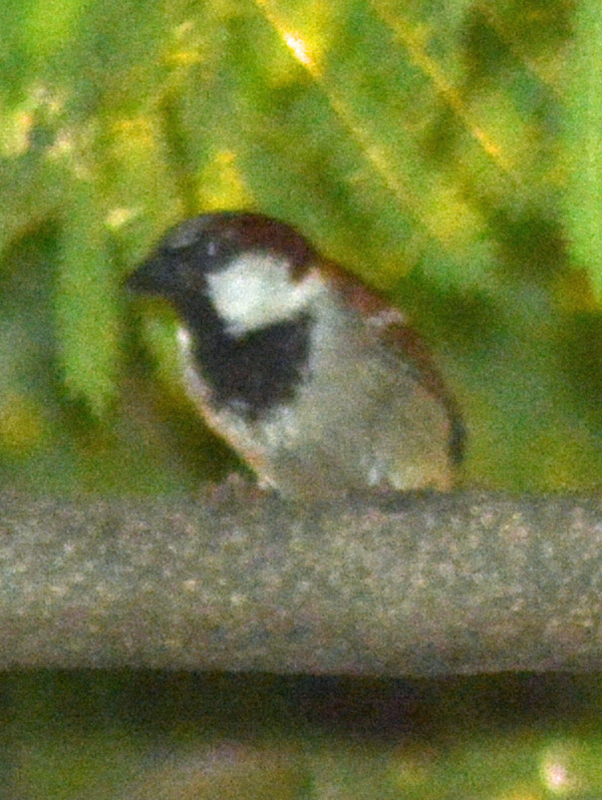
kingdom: Animalia
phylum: Chordata
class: Aves
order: Passeriformes
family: Passeridae
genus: Passer
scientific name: Passer domesticus
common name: House sparrow
